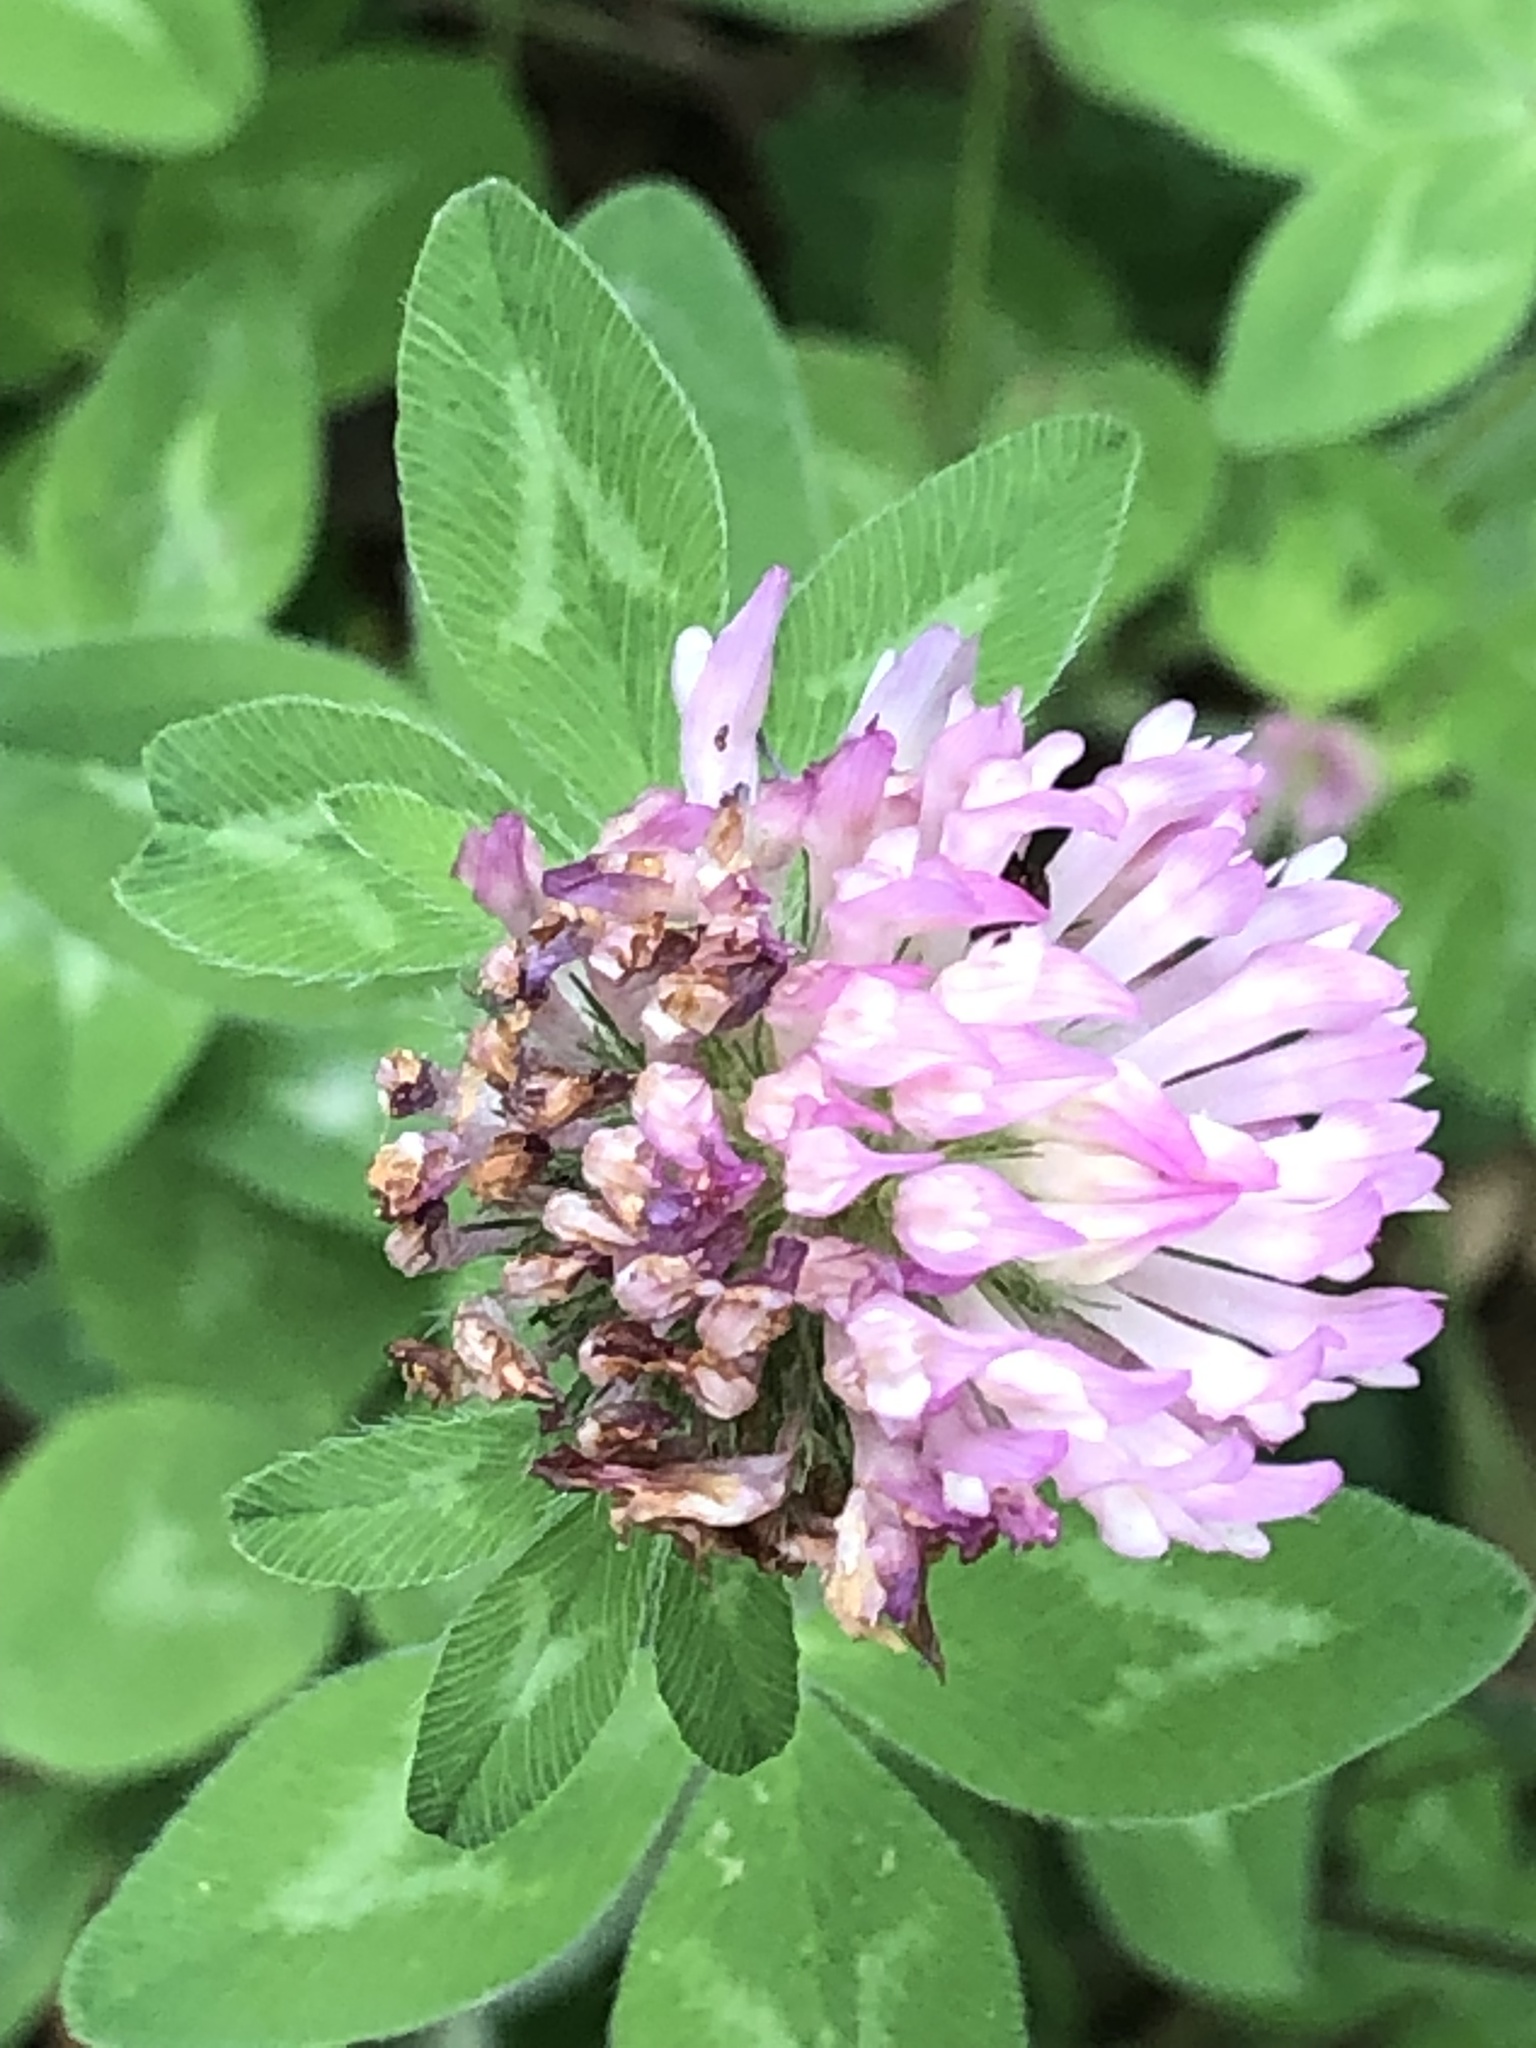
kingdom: Plantae
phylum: Tracheophyta
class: Magnoliopsida
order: Fabales
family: Fabaceae
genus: Trifolium
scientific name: Trifolium pratense
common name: Red clover
